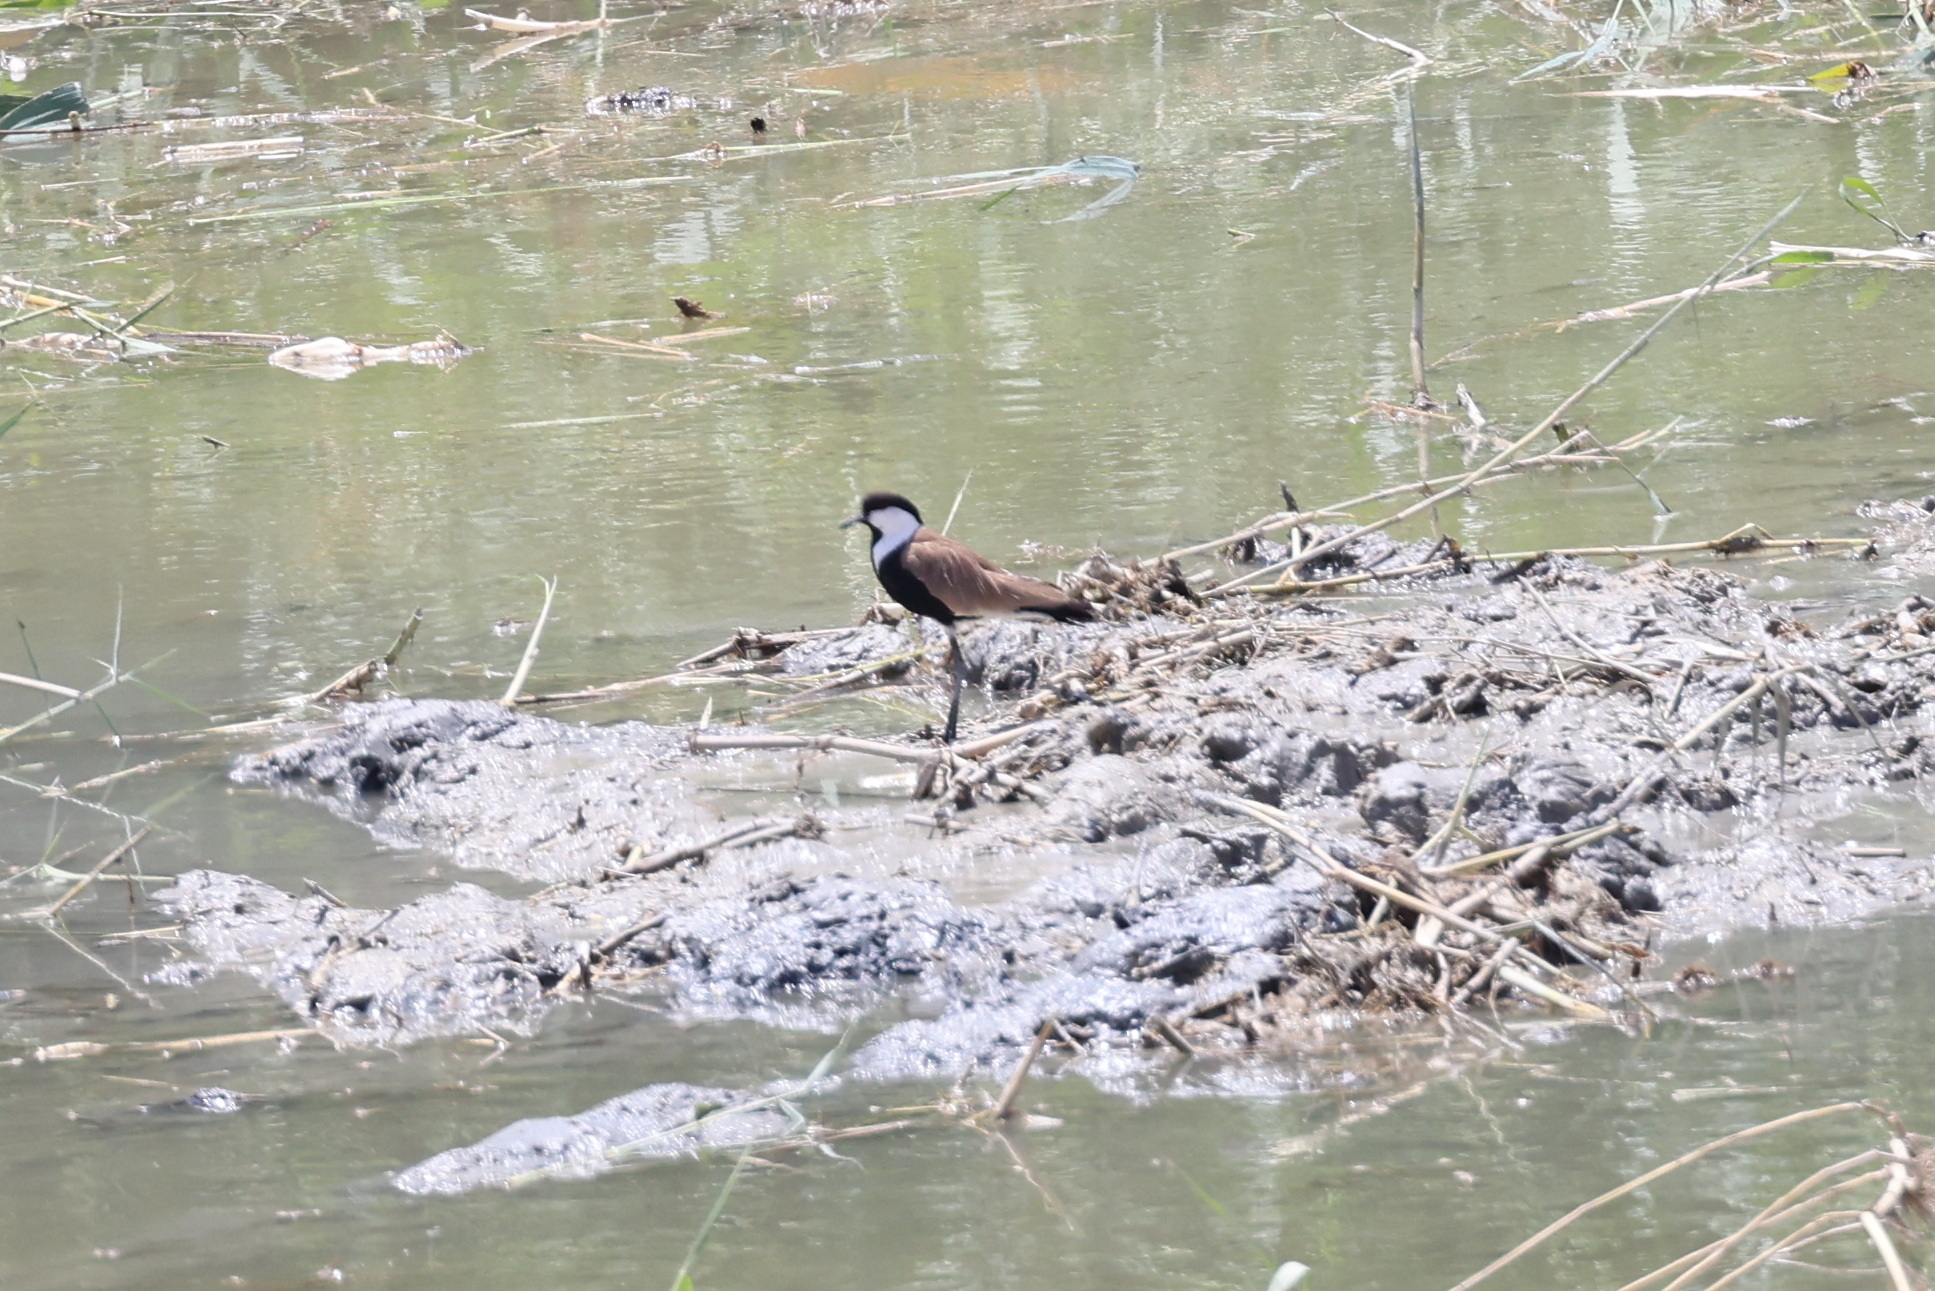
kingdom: Animalia
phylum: Chordata
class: Aves
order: Charadriiformes
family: Charadriidae
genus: Vanellus
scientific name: Vanellus spinosus
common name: Spur-winged lapwing
